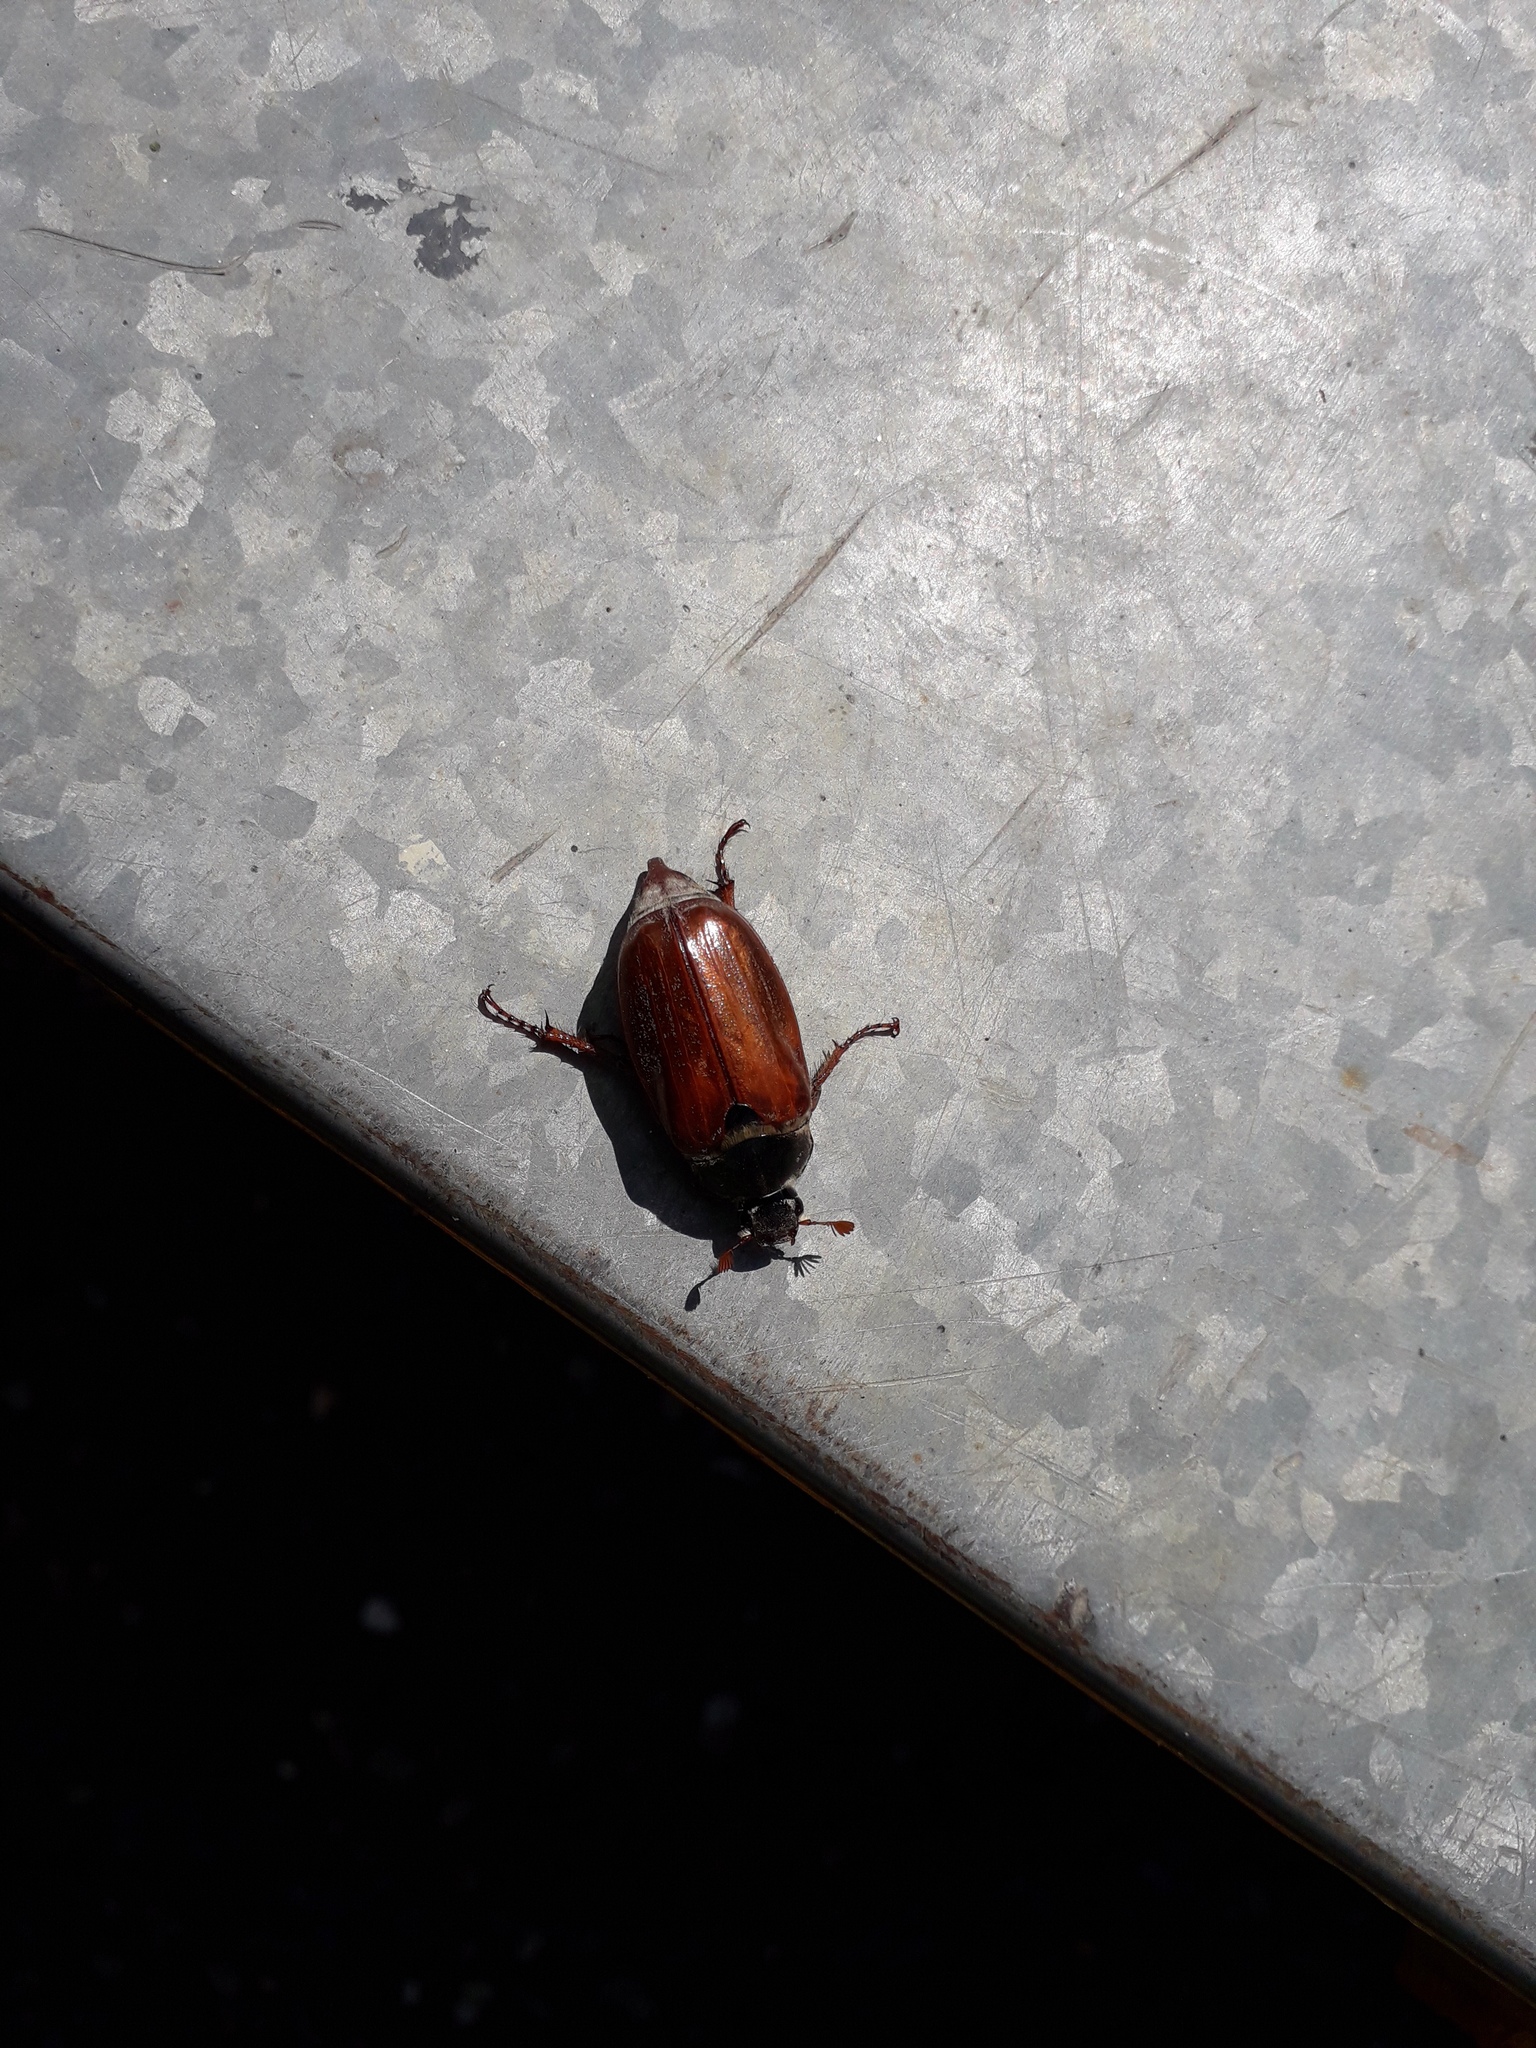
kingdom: Animalia
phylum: Arthropoda
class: Insecta
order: Coleoptera
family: Scarabaeidae
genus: Melolontha
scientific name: Melolontha melolontha
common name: Cockchafer maybeetle
